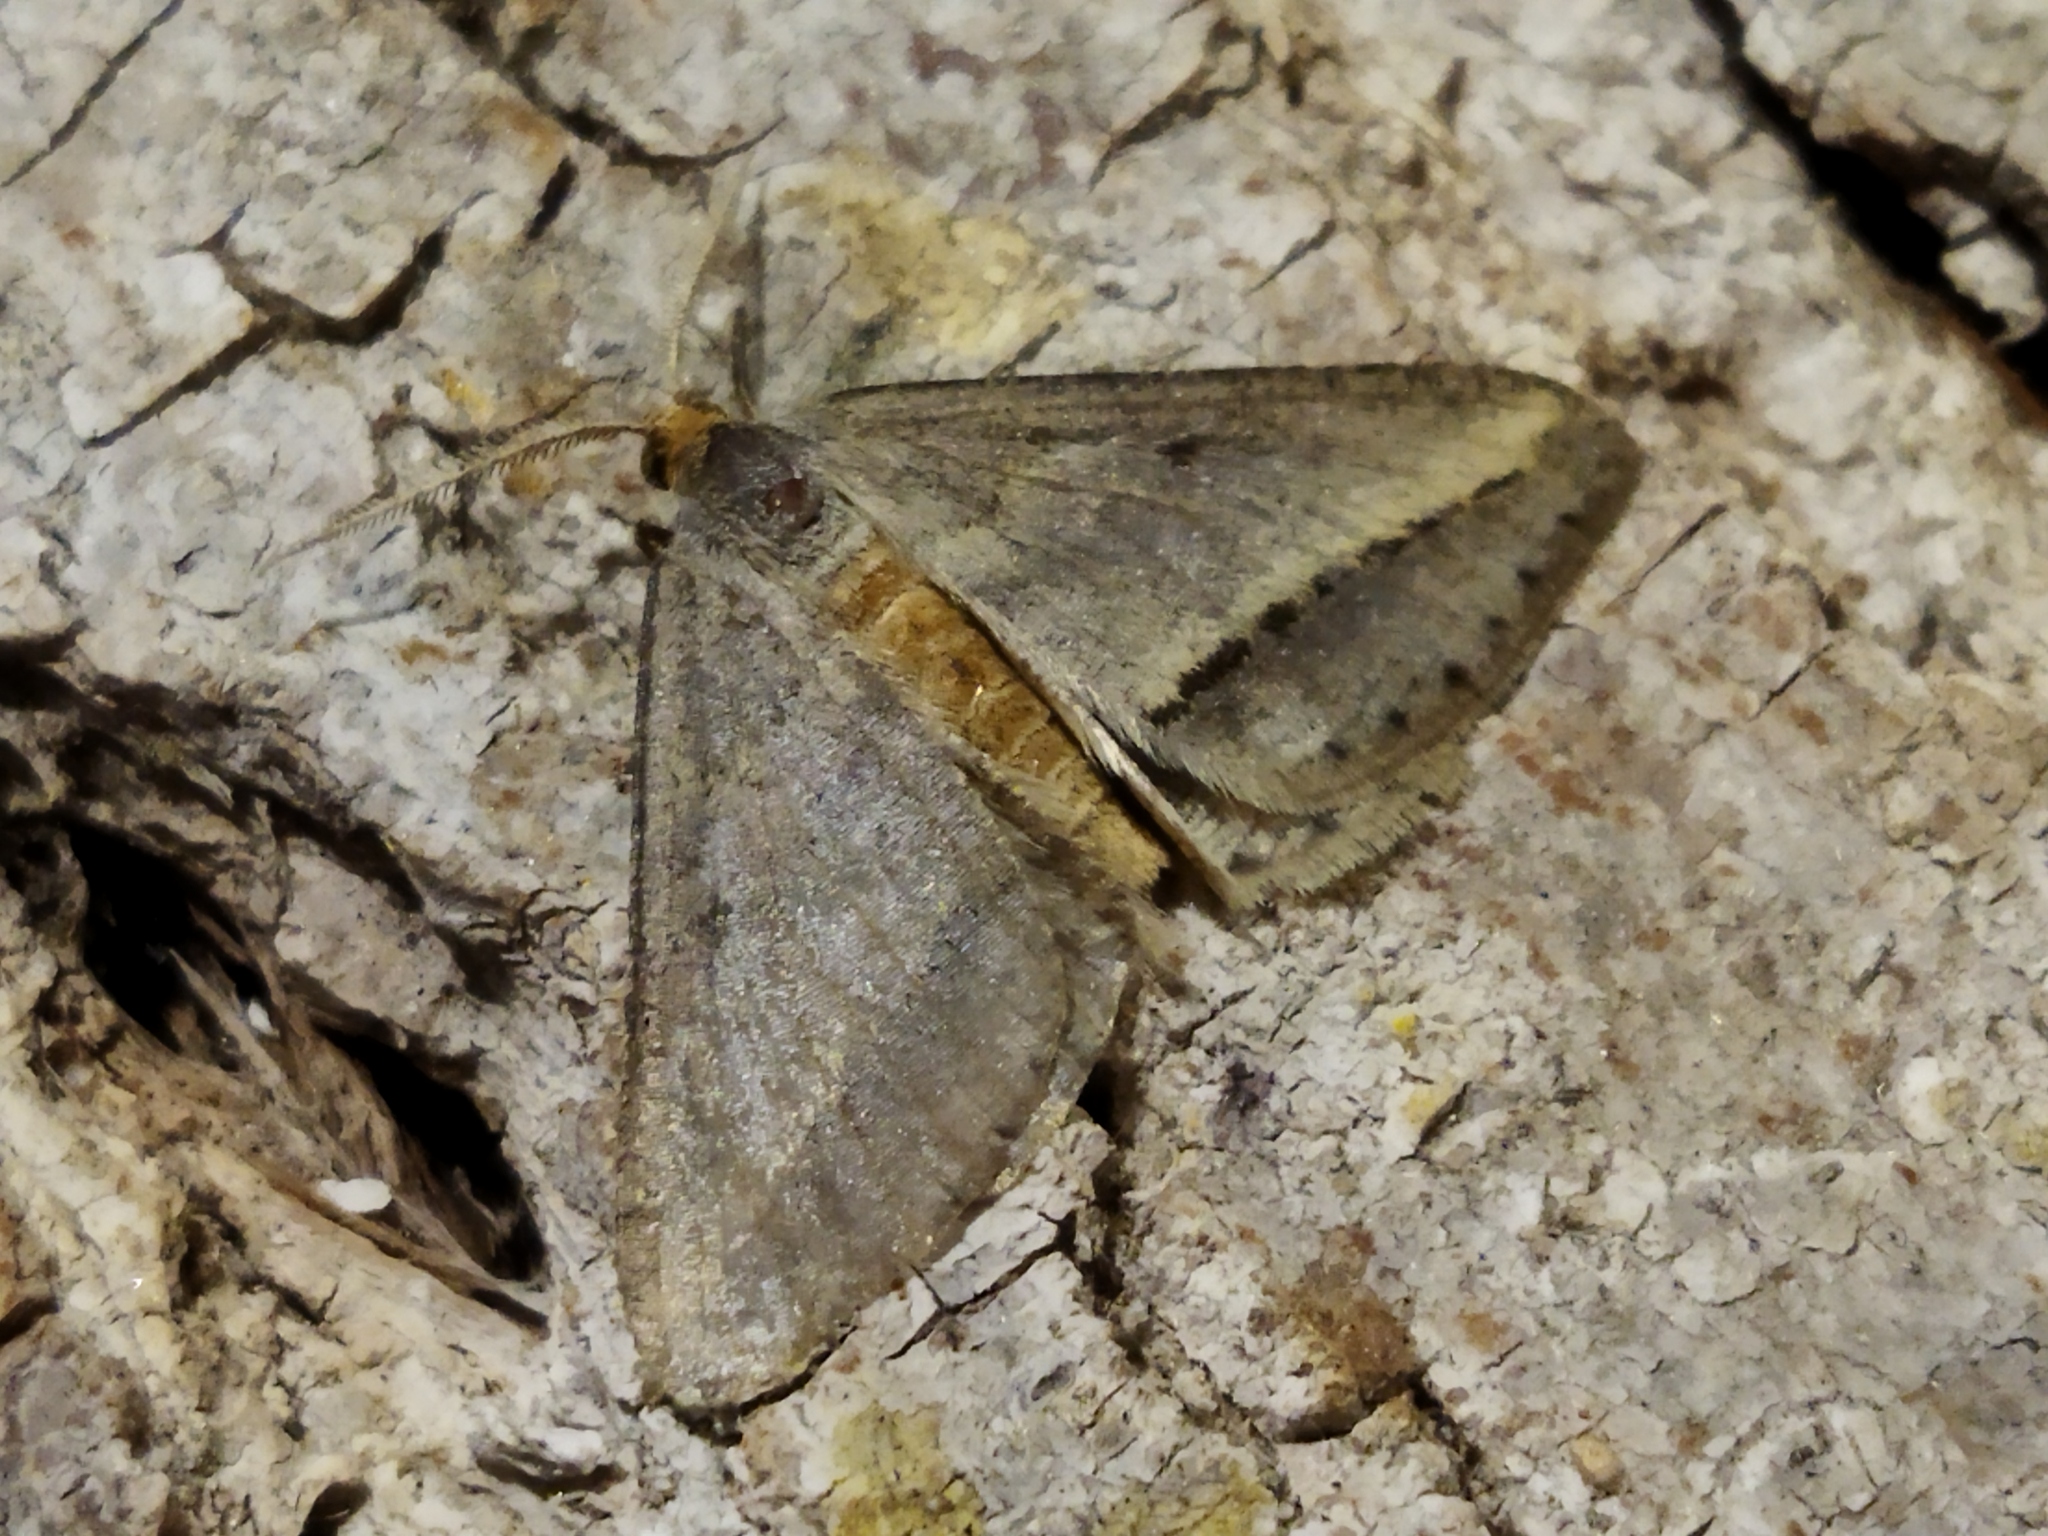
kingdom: Animalia
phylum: Arthropoda
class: Insecta
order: Lepidoptera
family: Geometridae
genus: Tephrina
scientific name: Tephrina arenacearia
